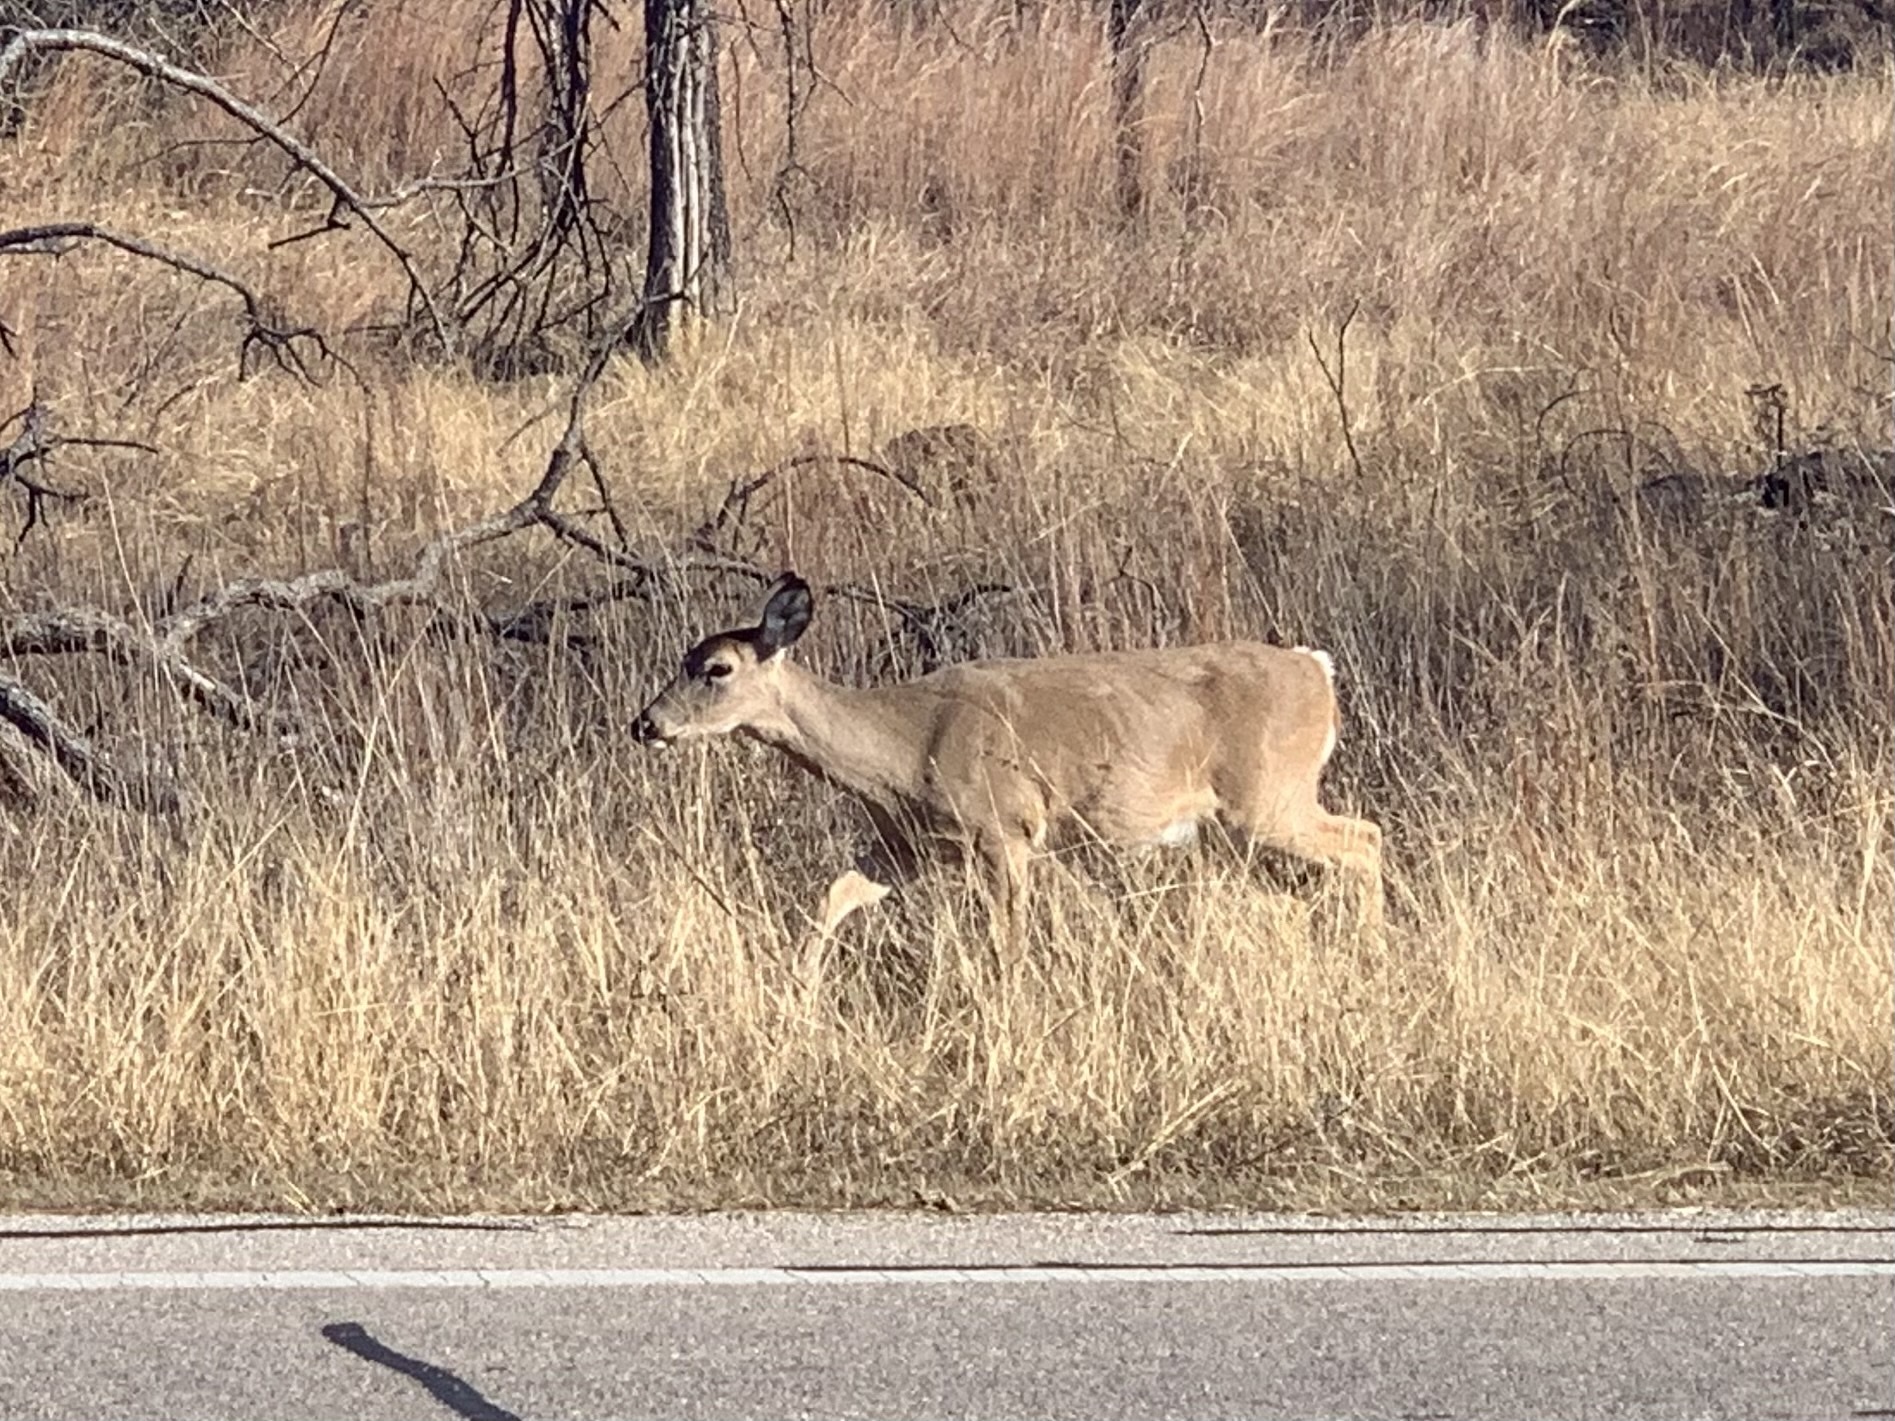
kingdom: Animalia
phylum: Chordata
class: Mammalia
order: Artiodactyla
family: Cervidae
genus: Odocoileus
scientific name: Odocoileus virginianus
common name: White-tailed deer
